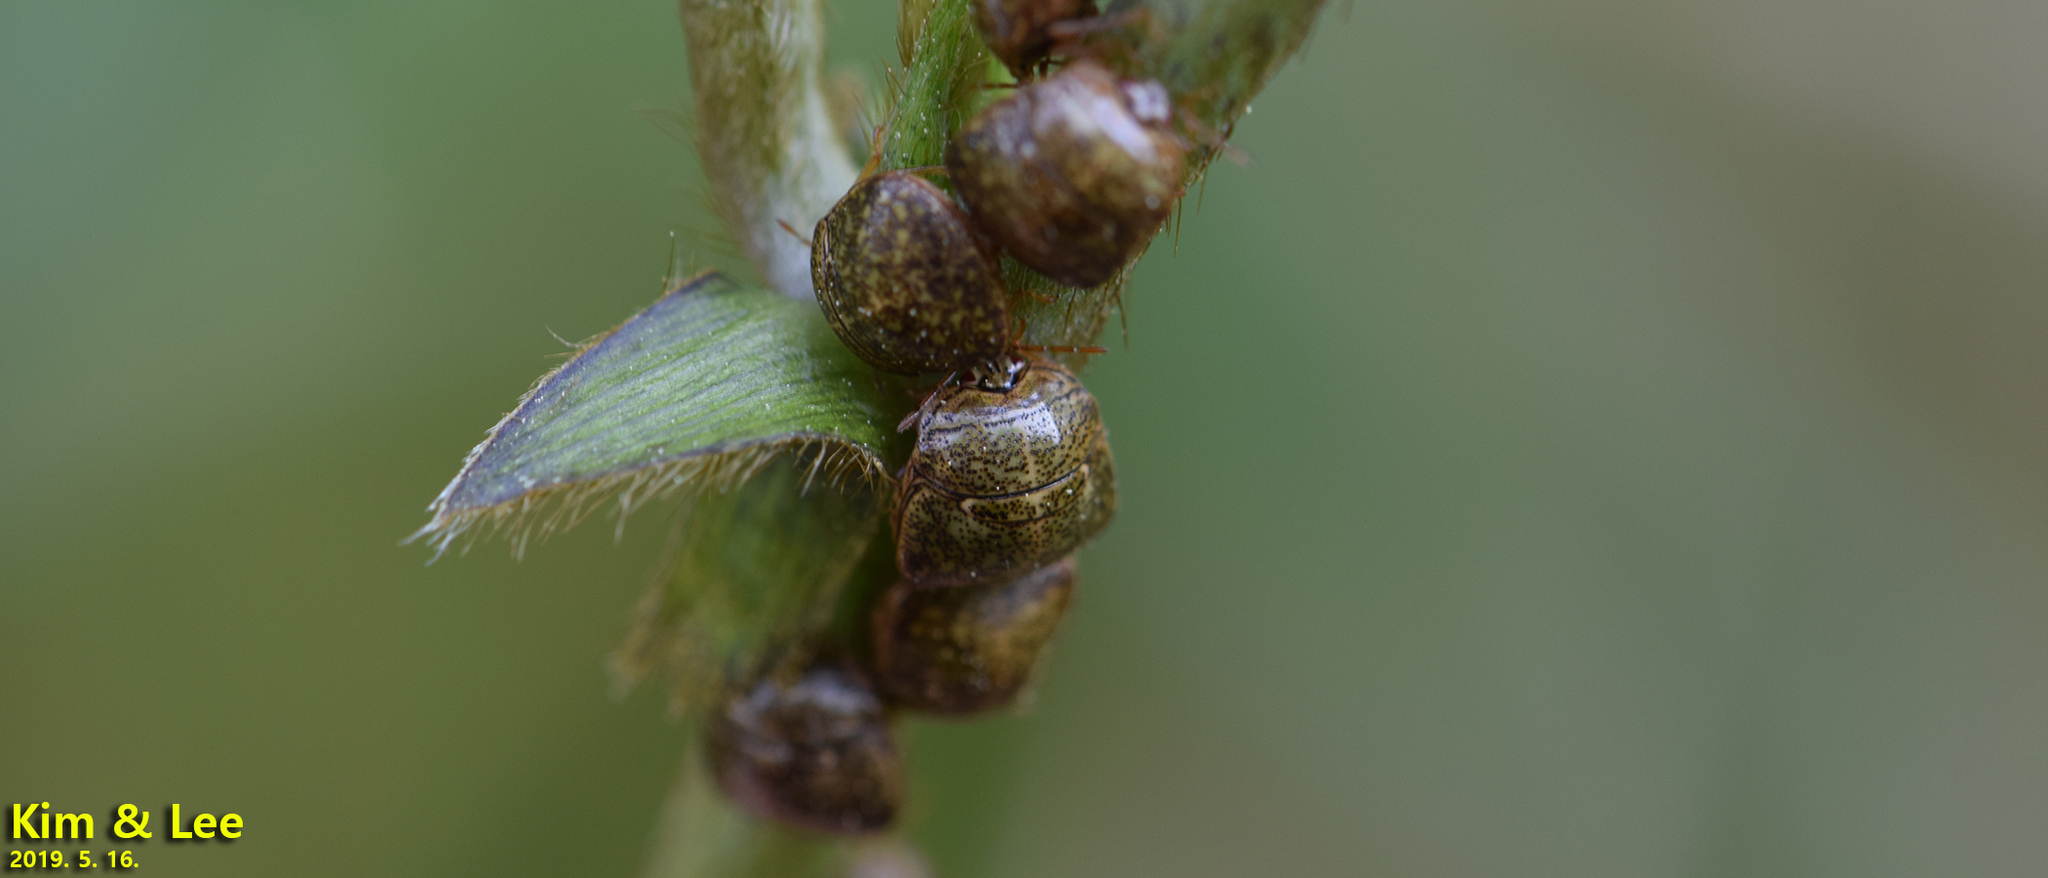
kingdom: Animalia
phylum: Arthropoda
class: Insecta
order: Hemiptera
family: Plataspidae
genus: Megacopta
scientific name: Megacopta cribraria
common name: Bean plataspid
